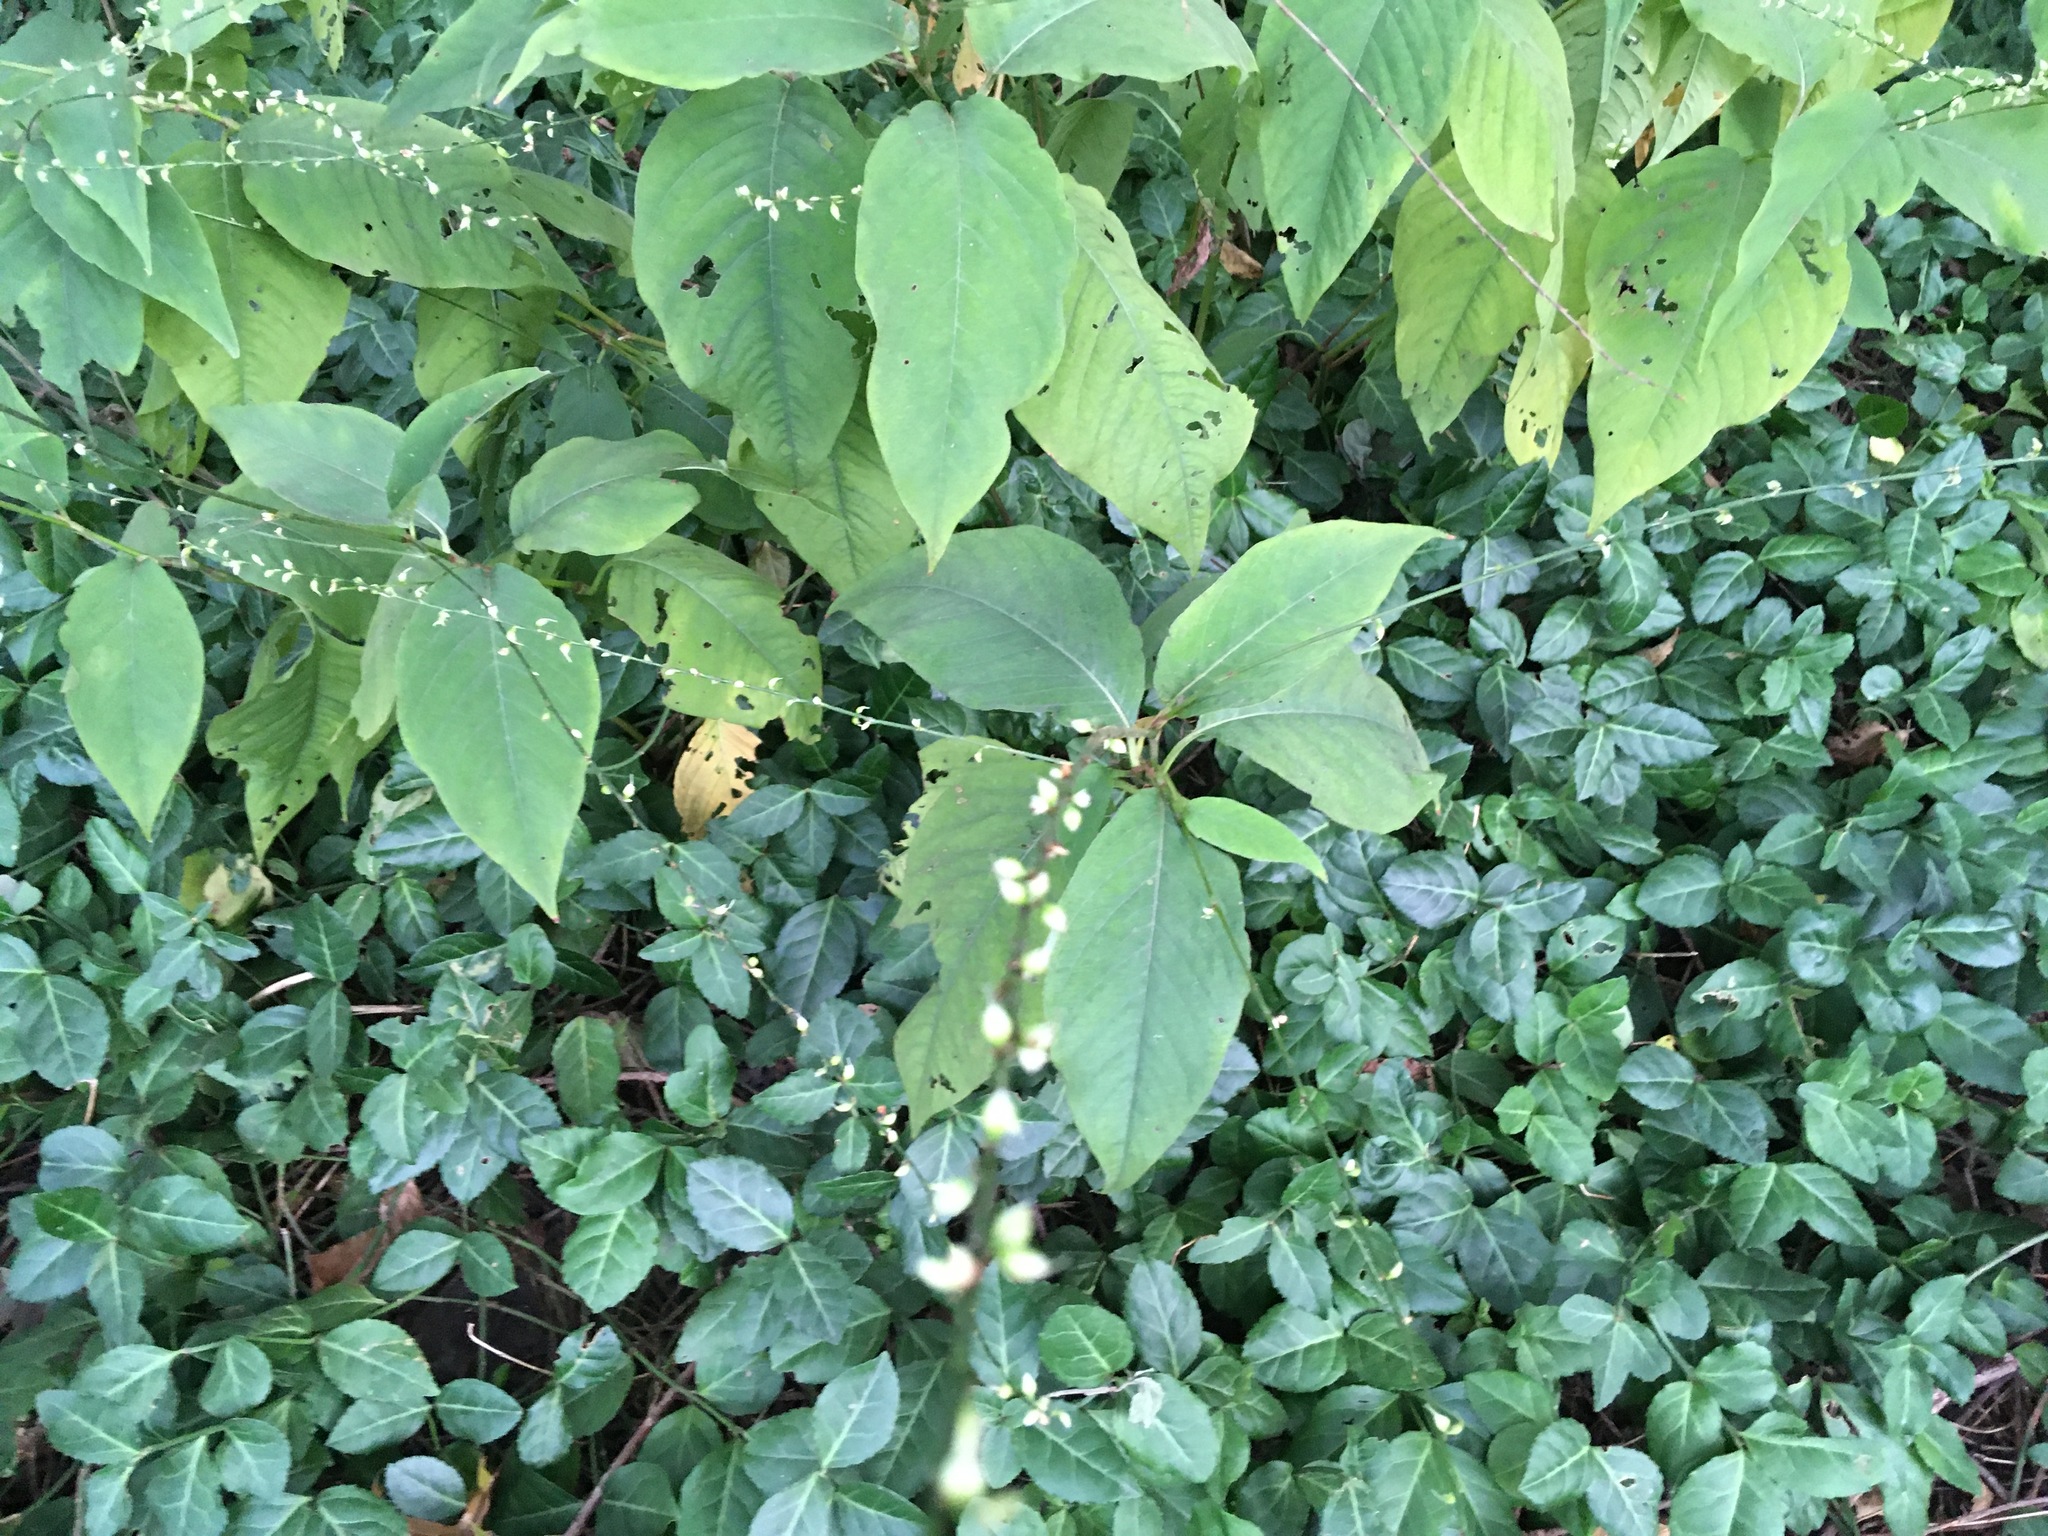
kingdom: Plantae
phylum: Tracheophyta
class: Magnoliopsida
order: Caryophyllales
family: Polygonaceae
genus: Persicaria
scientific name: Persicaria virginiana
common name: Jumpseed
